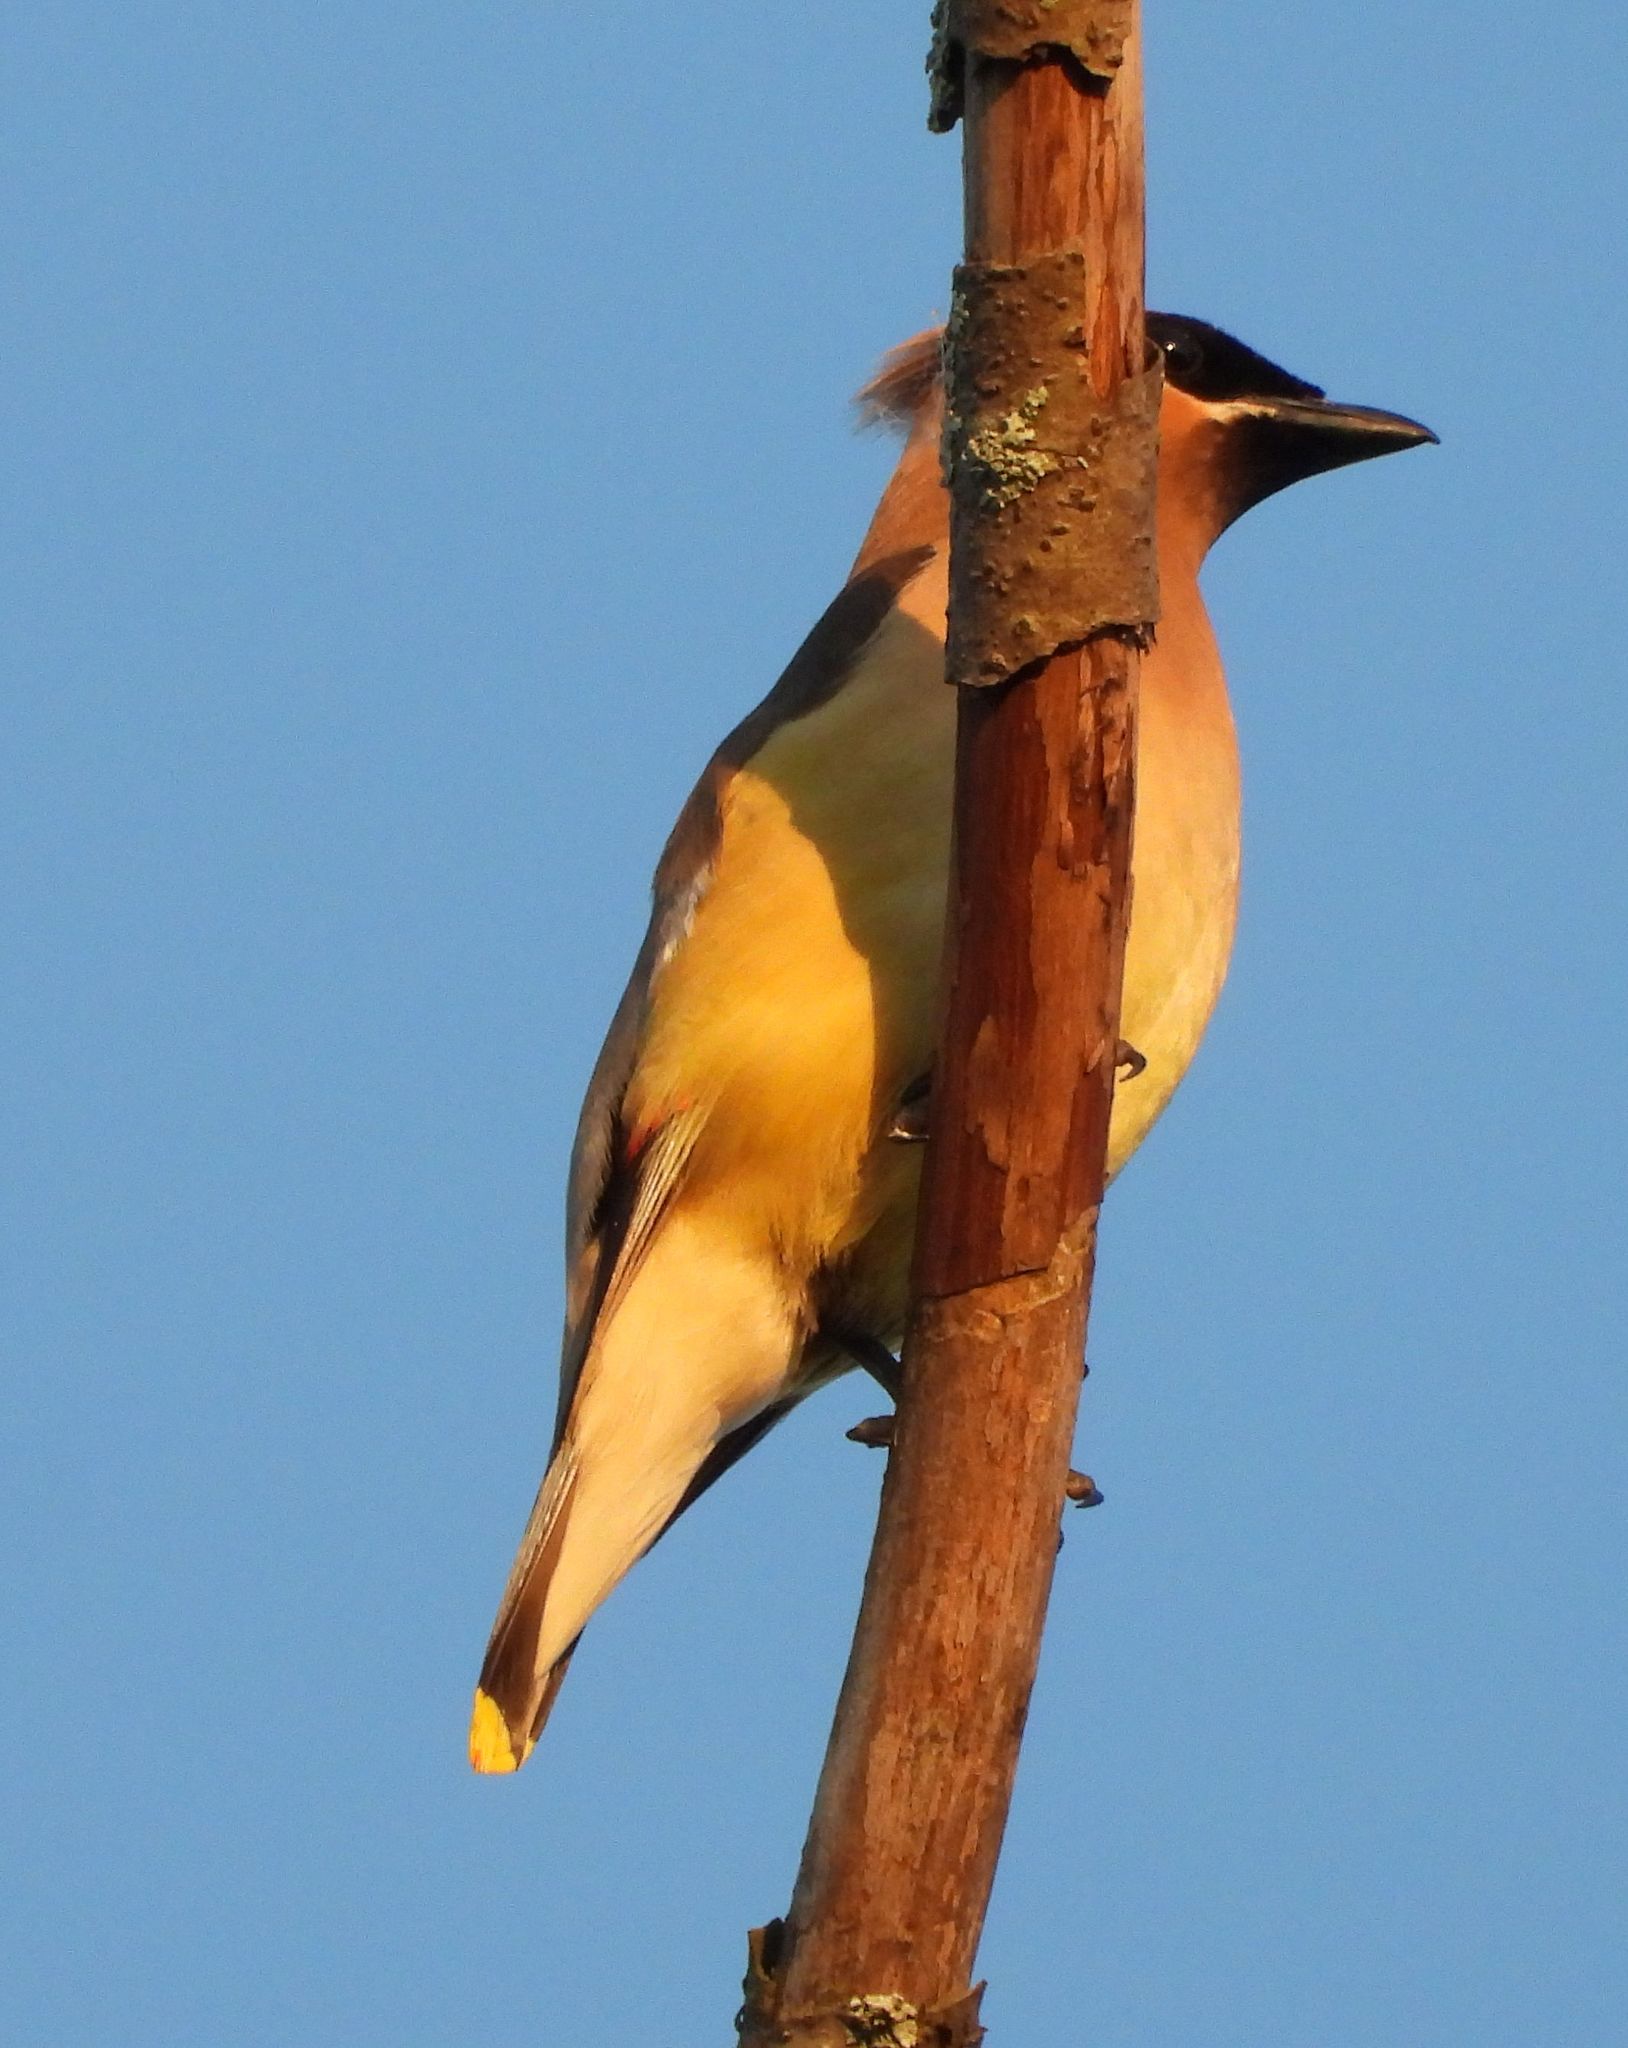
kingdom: Animalia
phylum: Chordata
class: Aves
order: Passeriformes
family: Bombycillidae
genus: Bombycilla
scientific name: Bombycilla cedrorum
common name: Cedar waxwing
